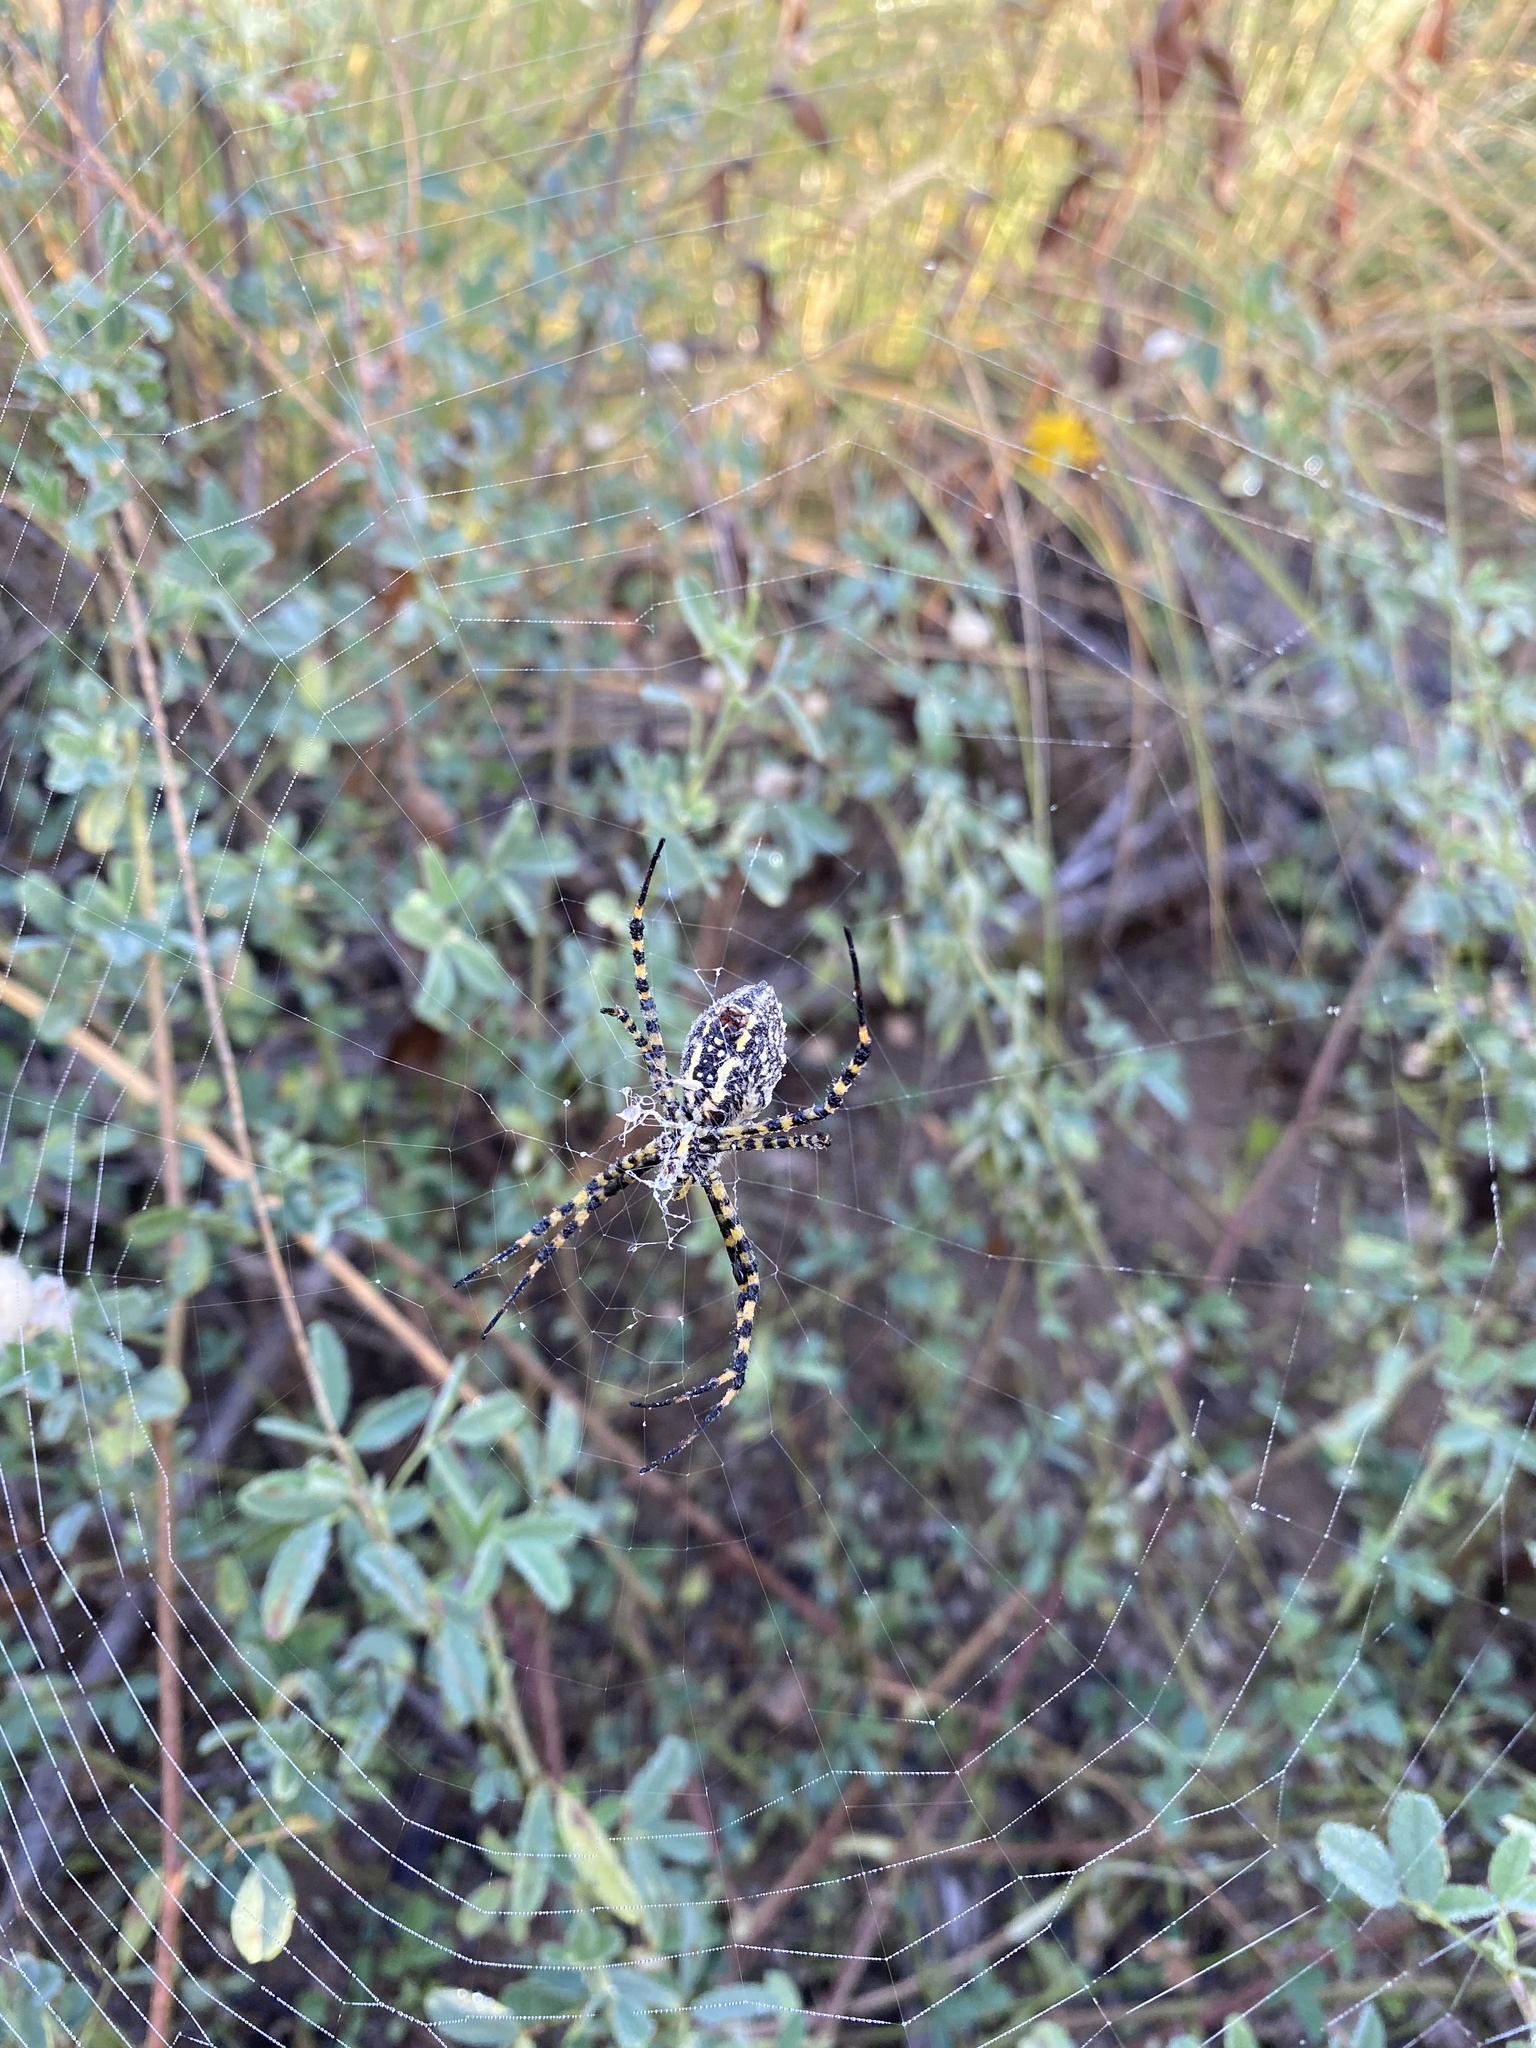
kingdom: Animalia
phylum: Arthropoda
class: Arachnida
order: Araneae
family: Araneidae
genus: Argiope
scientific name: Argiope trifasciata
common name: Banded garden spider
